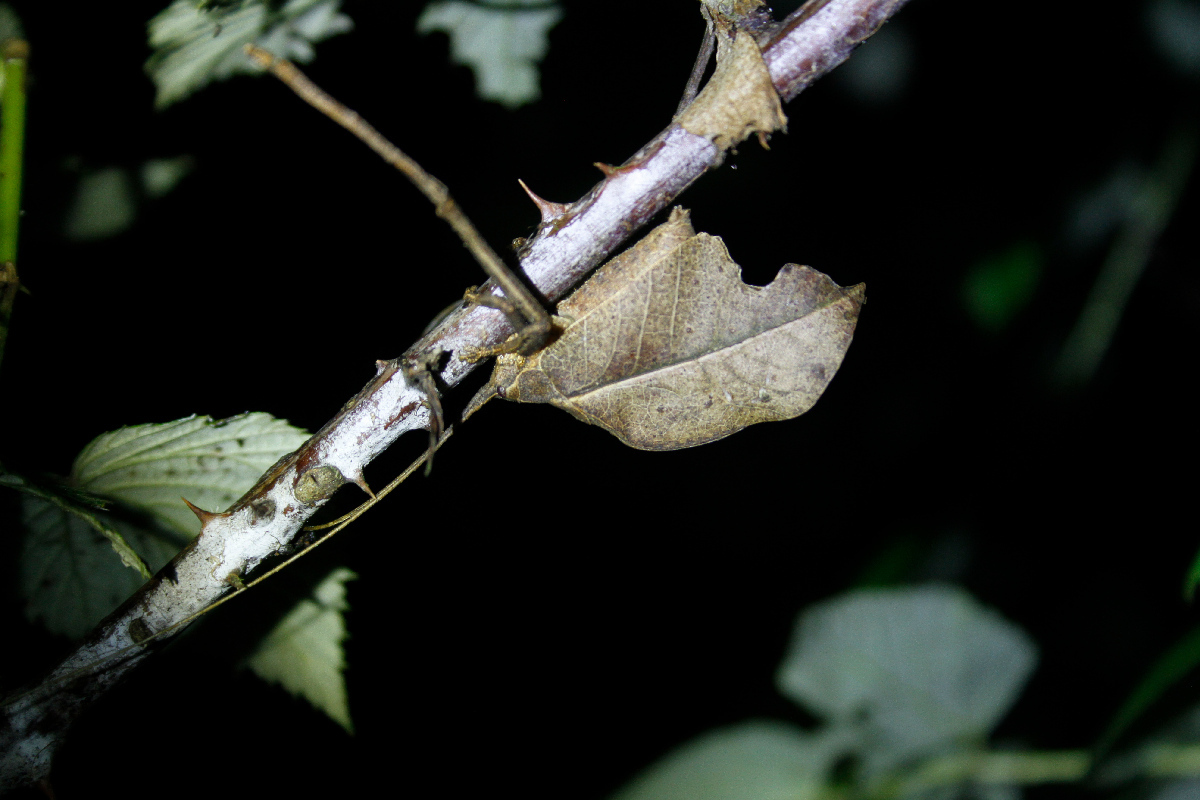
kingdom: Animalia
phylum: Arthropoda
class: Insecta
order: Orthoptera
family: Tettigoniidae
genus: Mimetica
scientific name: Mimetica incisa
